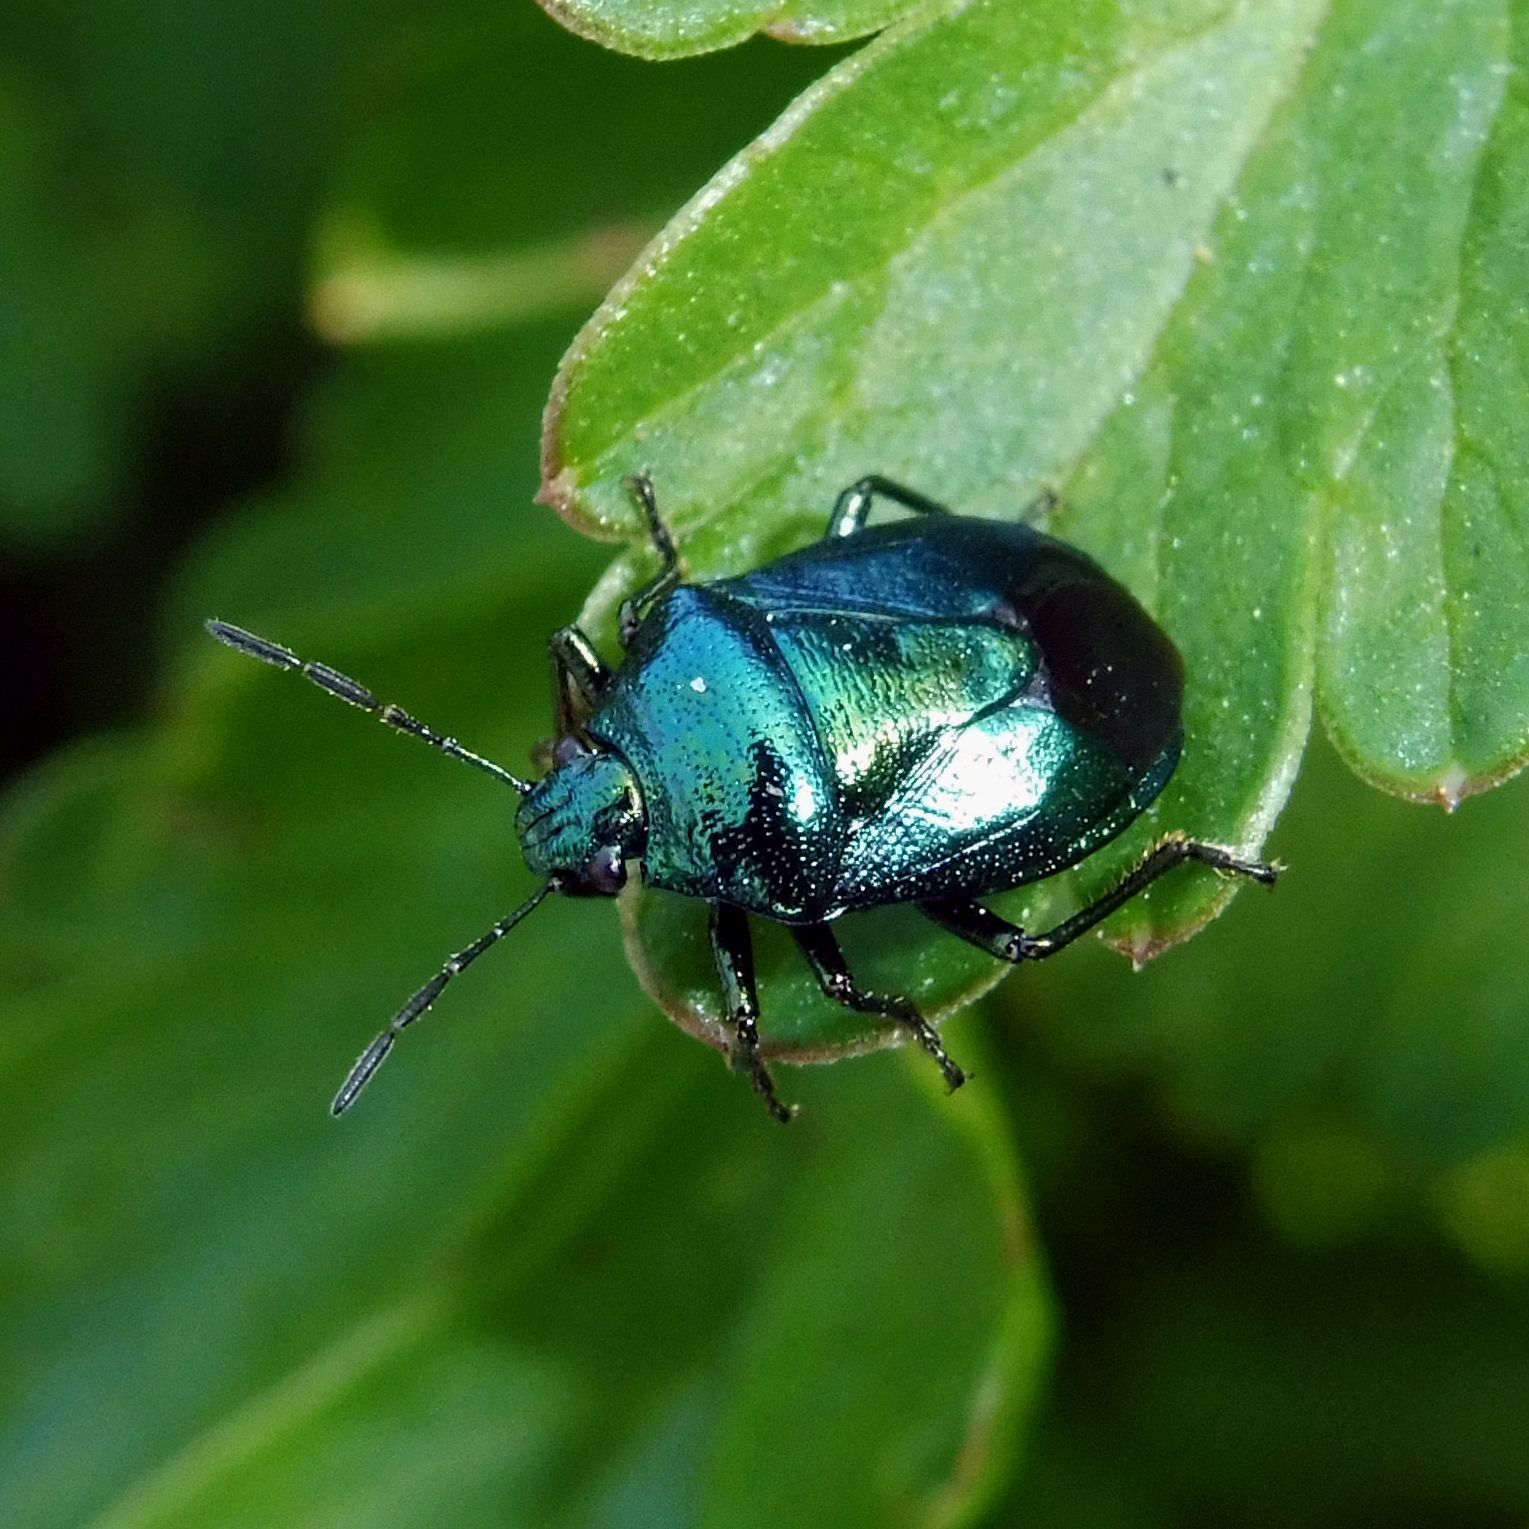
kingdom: Animalia
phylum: Arthropoda
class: Insecta
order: Hemiptera
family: Pentatomidae
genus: Zicrona
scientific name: Zicrona caerulea
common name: Blue shieldbug
